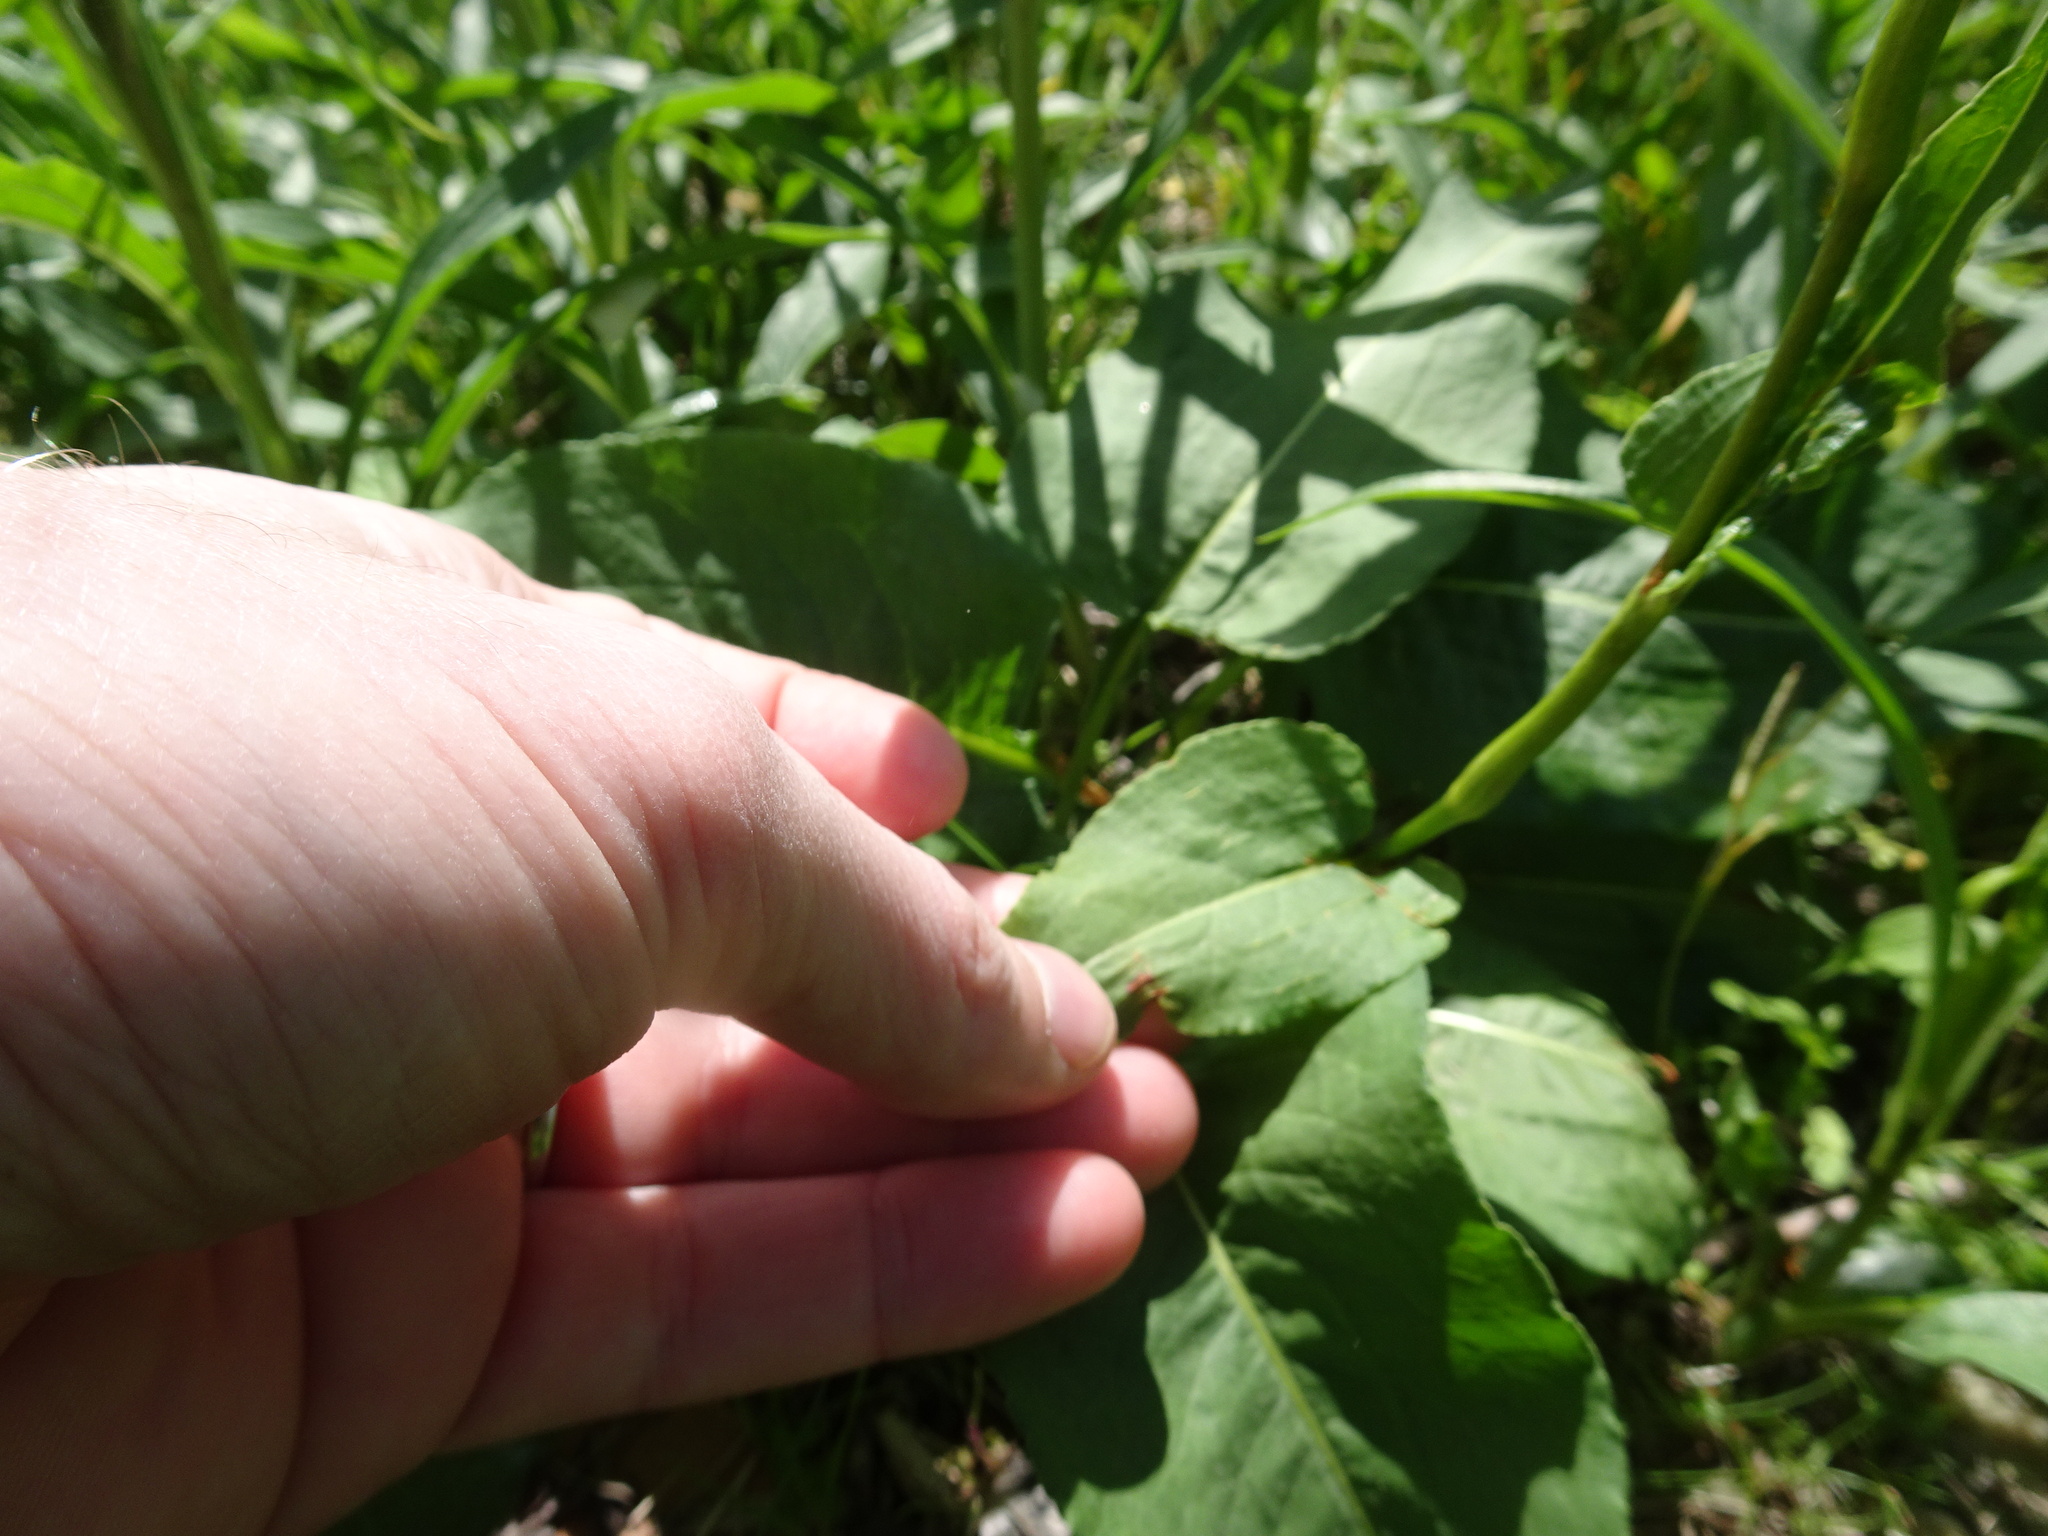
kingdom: Plantae
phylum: Tracheophyta
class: Magnoliopsida
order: Caryophyllales
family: Polygonaceae
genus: Bistorta
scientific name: Bistorta officinalis
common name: Common bistort
